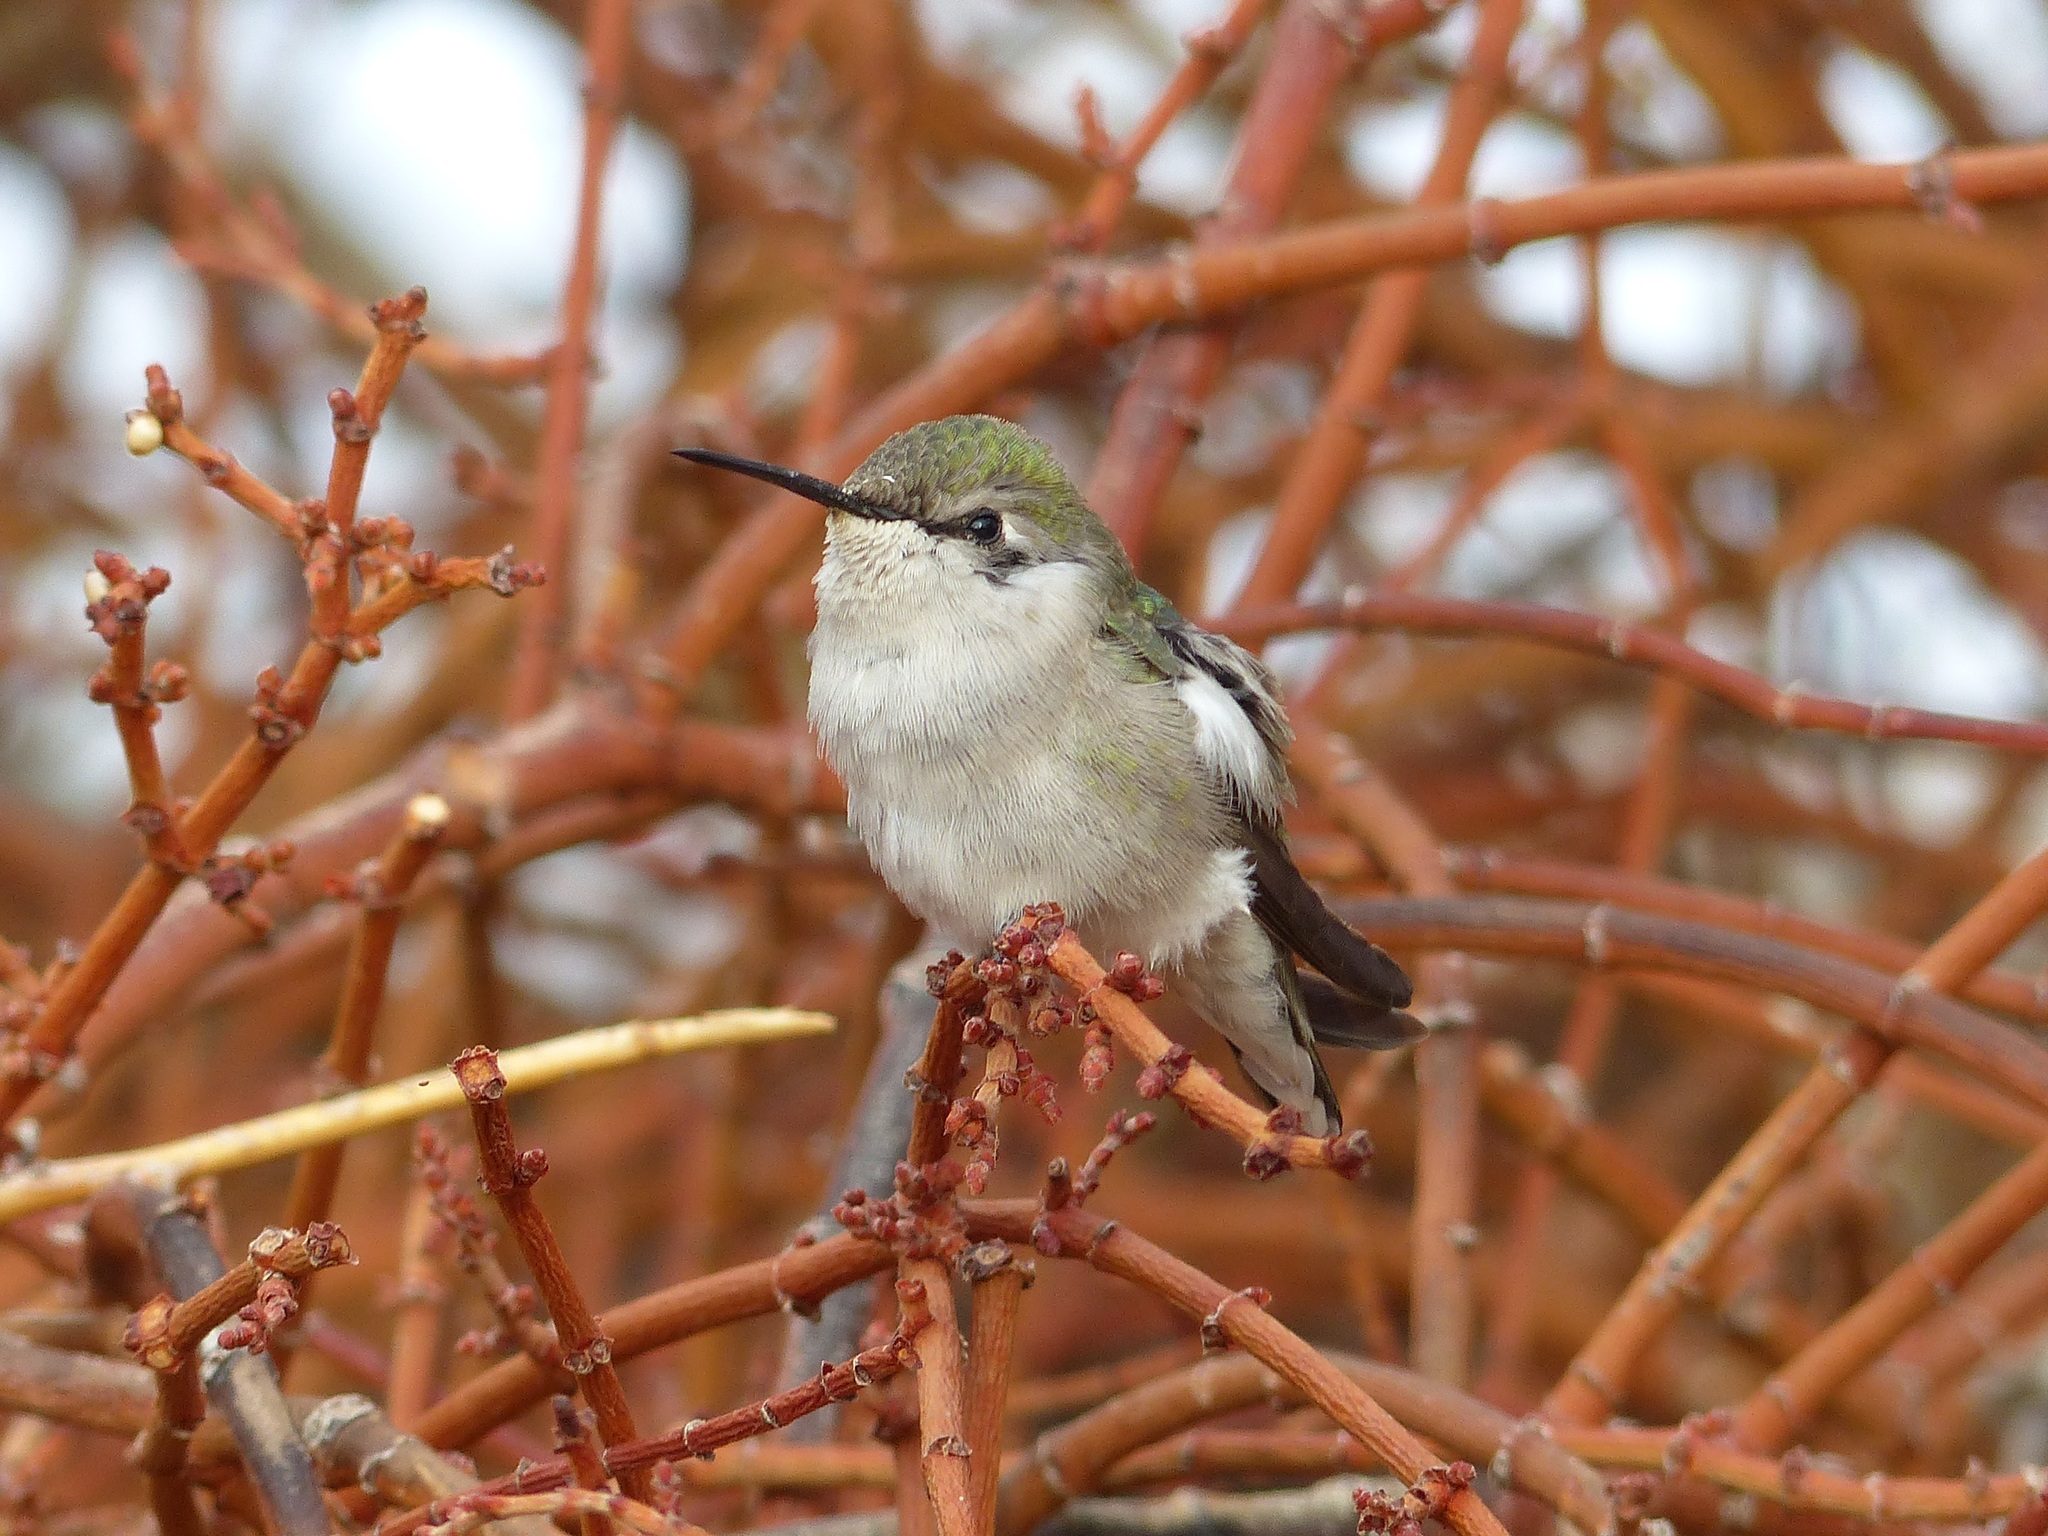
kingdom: Animalia
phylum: Chordata
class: Aves
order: Apodiformes
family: Trochilidae
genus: Calypte
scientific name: Calypte costae
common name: Costa's hummingbird
